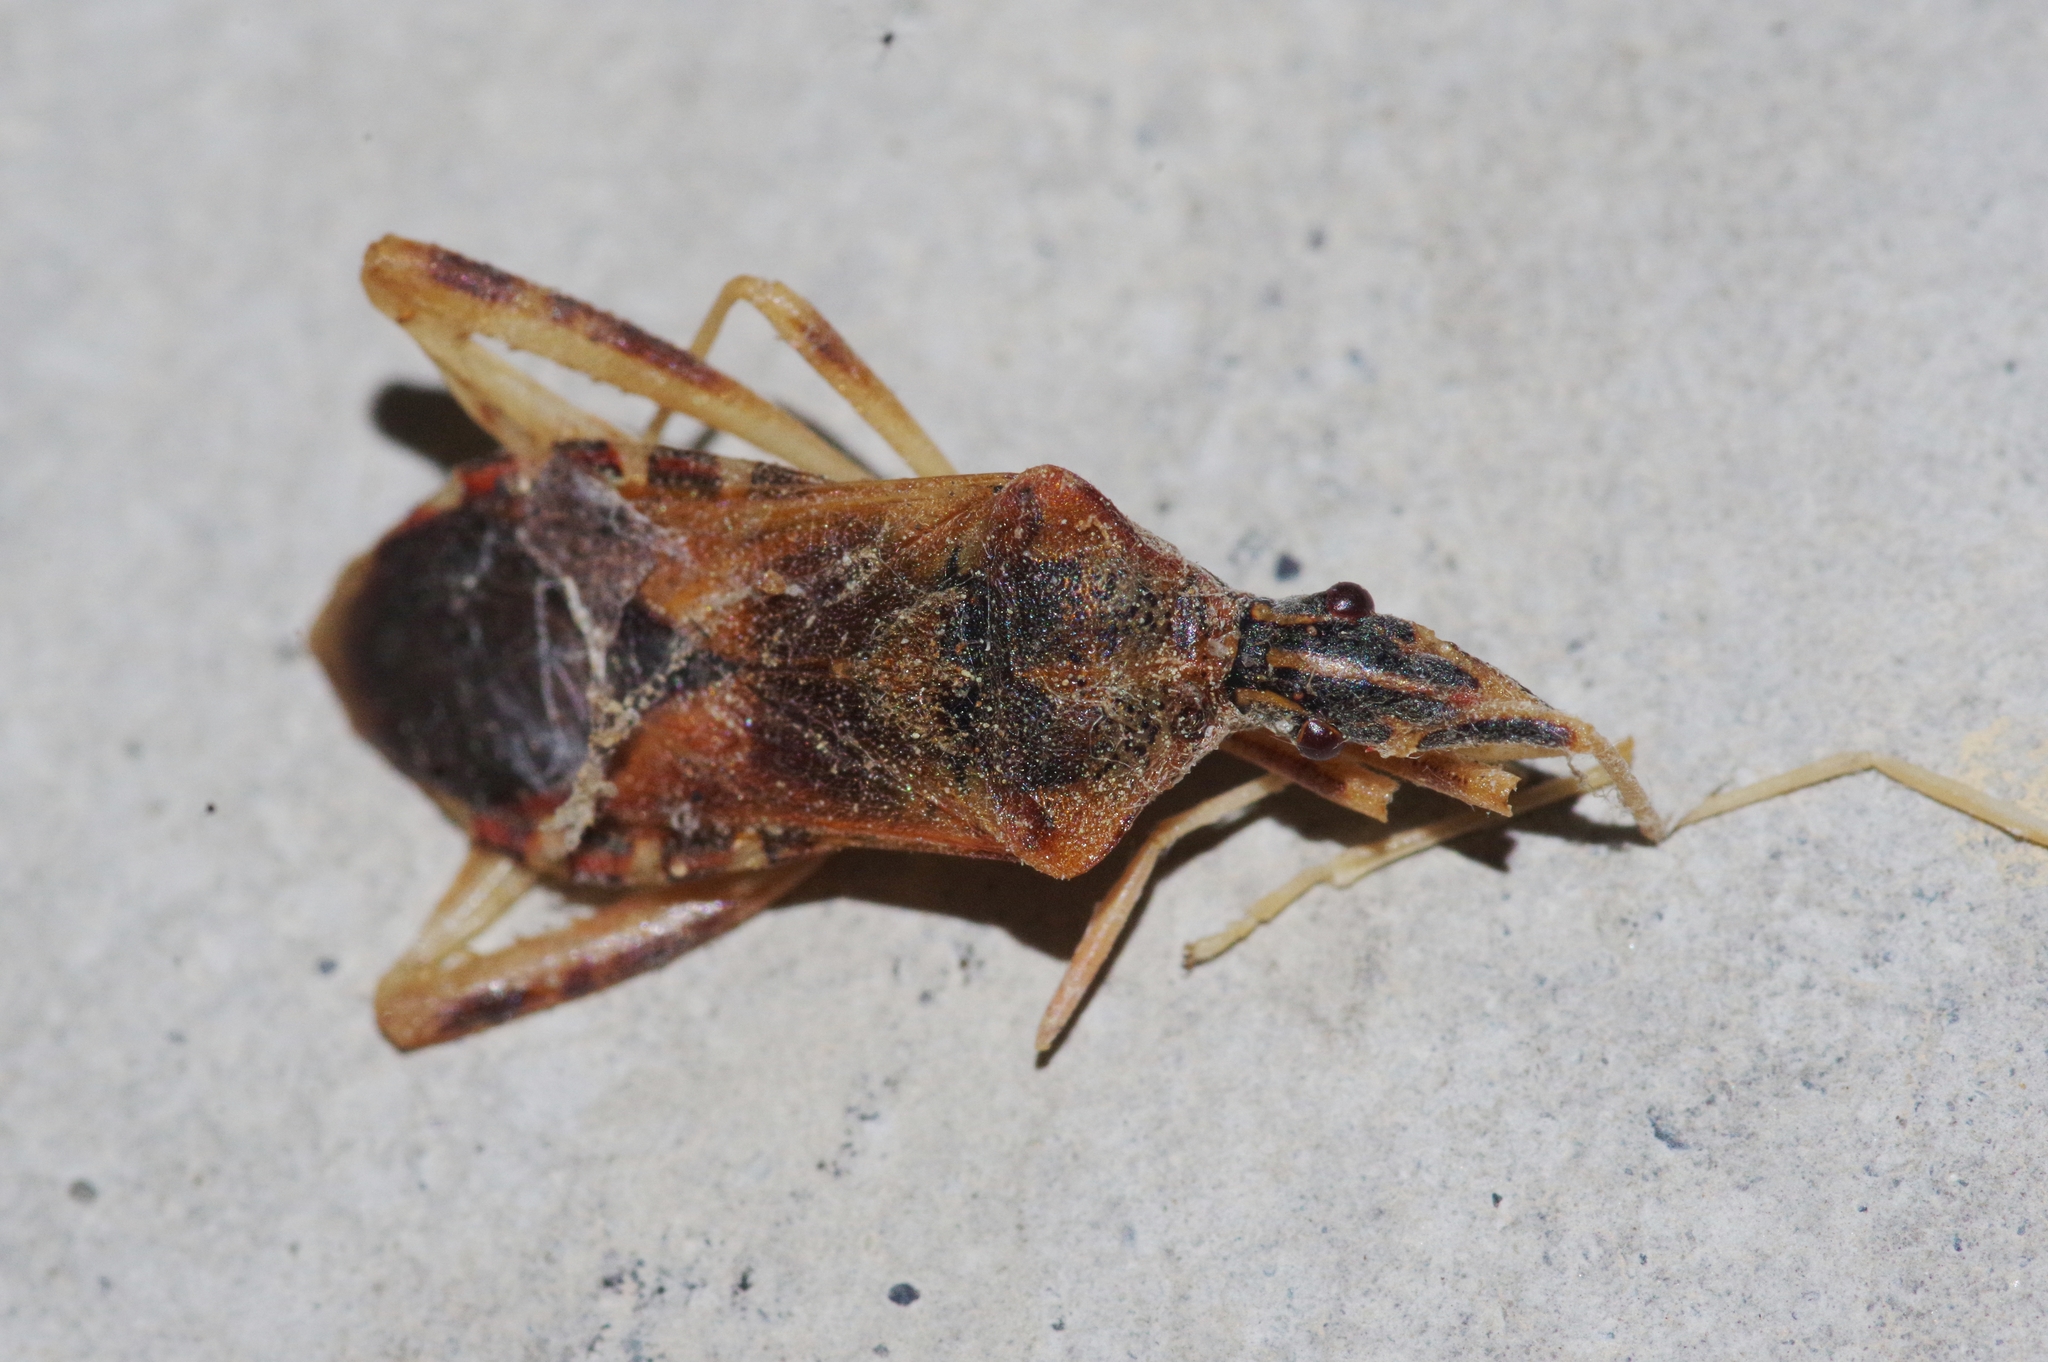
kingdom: Animalia
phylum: Arthropoda
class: Insecta
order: Hemiptera
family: Coreidae
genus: Leptoglossus
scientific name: Leptoglossus occidentalis
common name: Western conifer-seed bug
